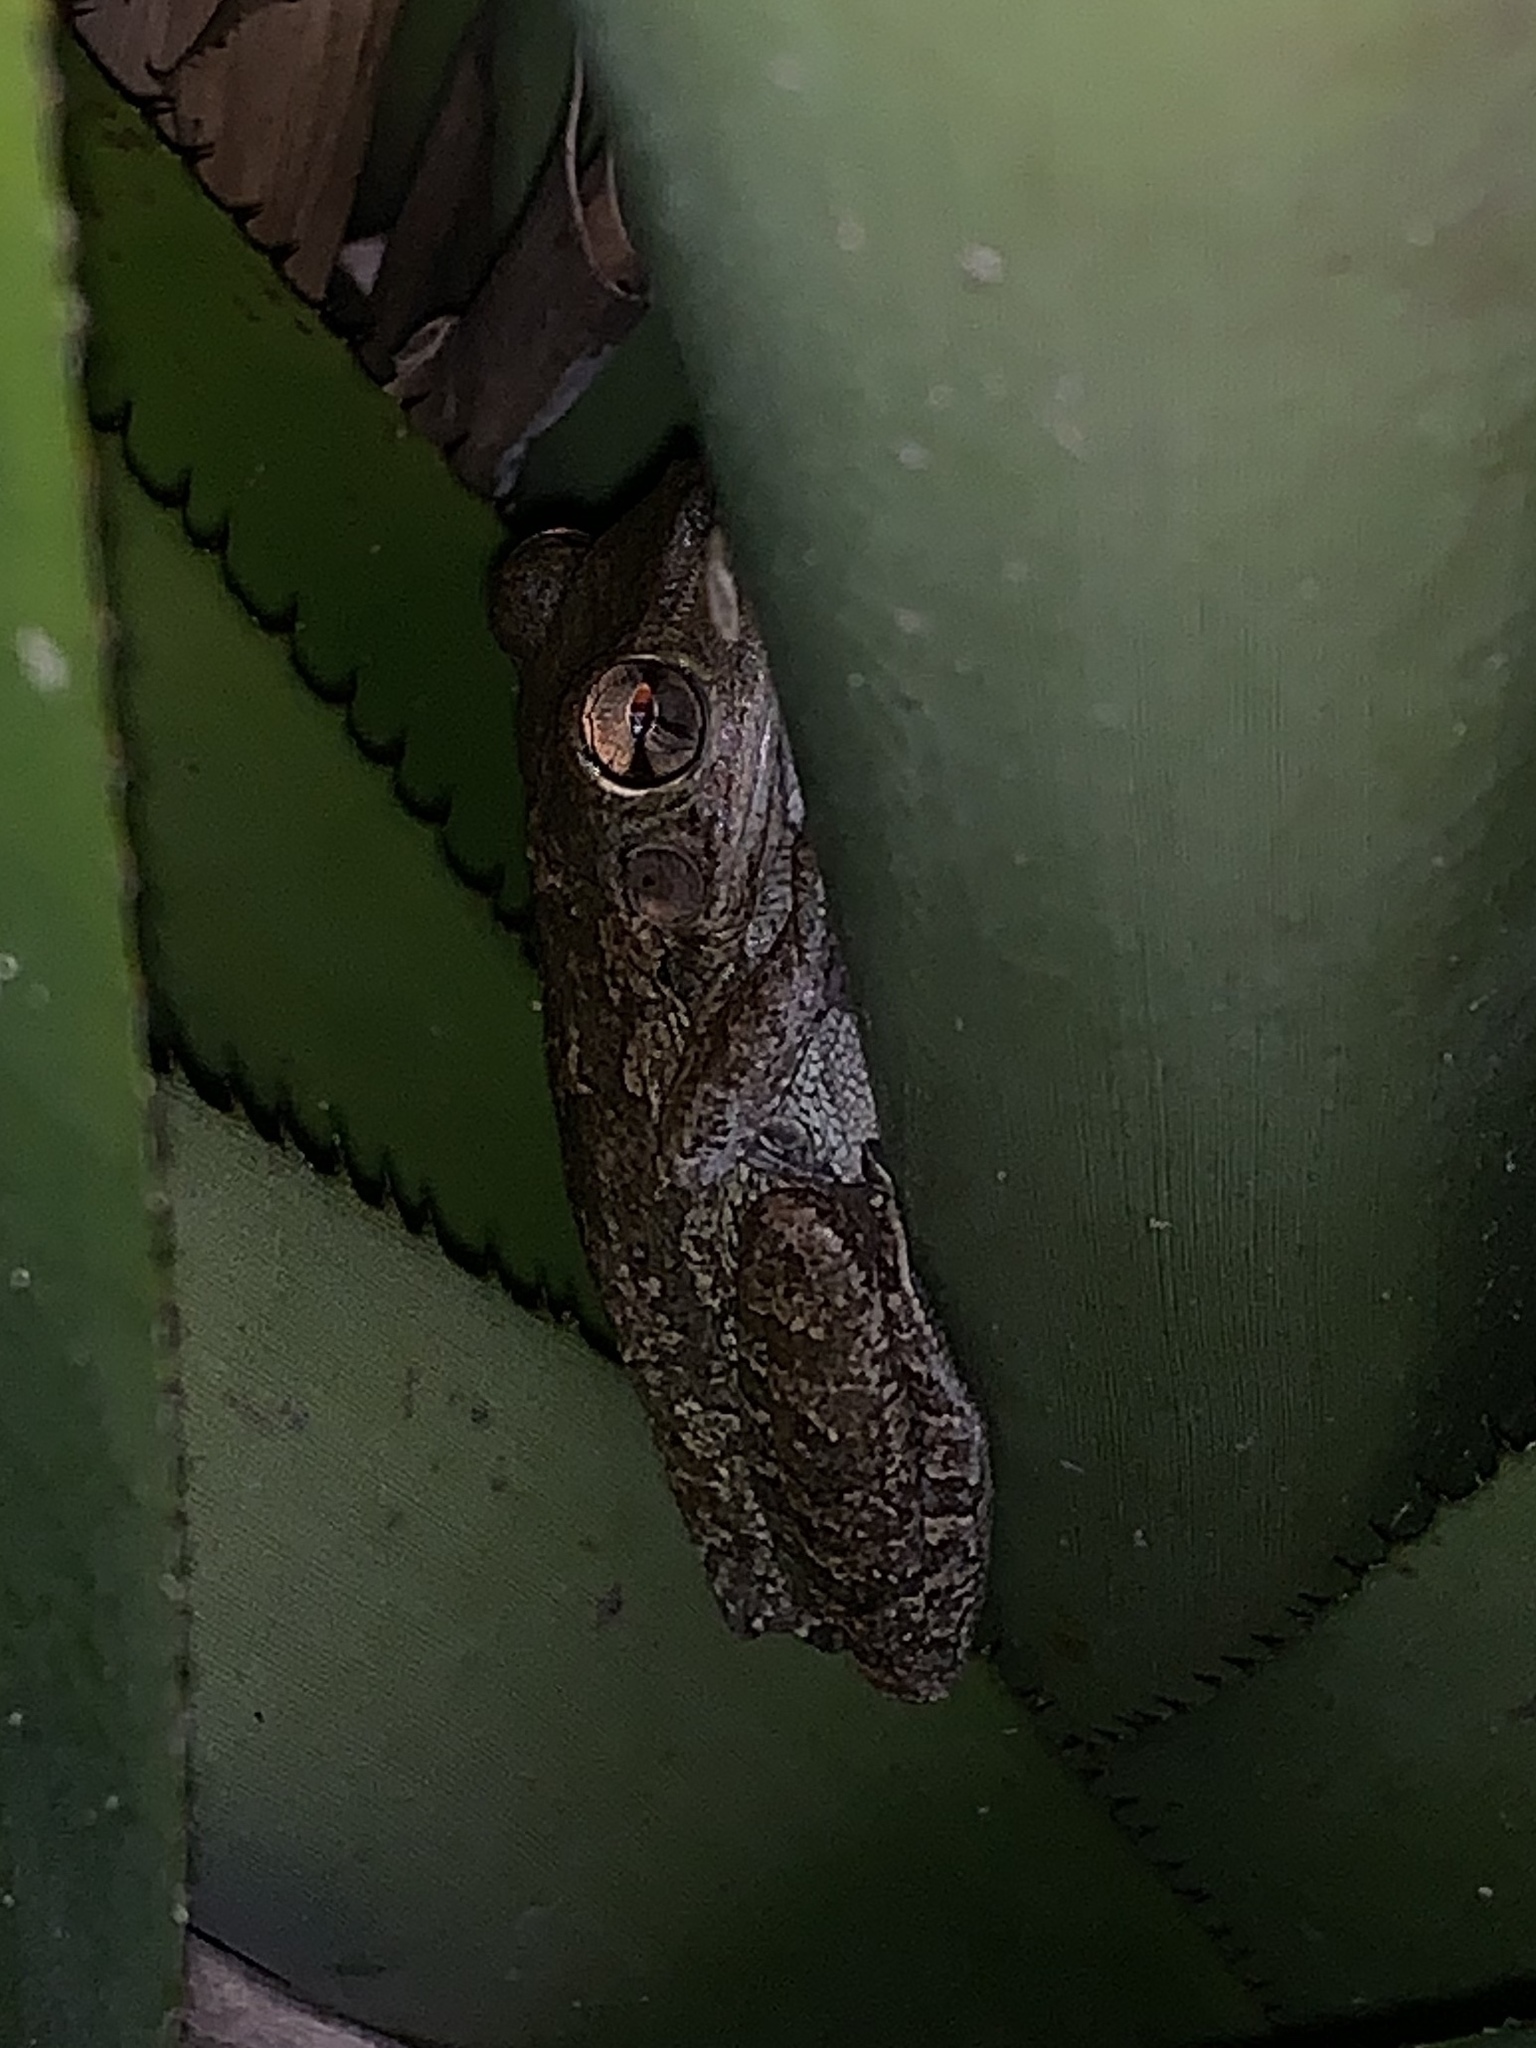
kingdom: Animalia
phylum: Chordata
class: Amphibia
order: Anura
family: Hylidae
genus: Osteopilus
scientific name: Osteopilus septentrionalis
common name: Cuban treefrog
